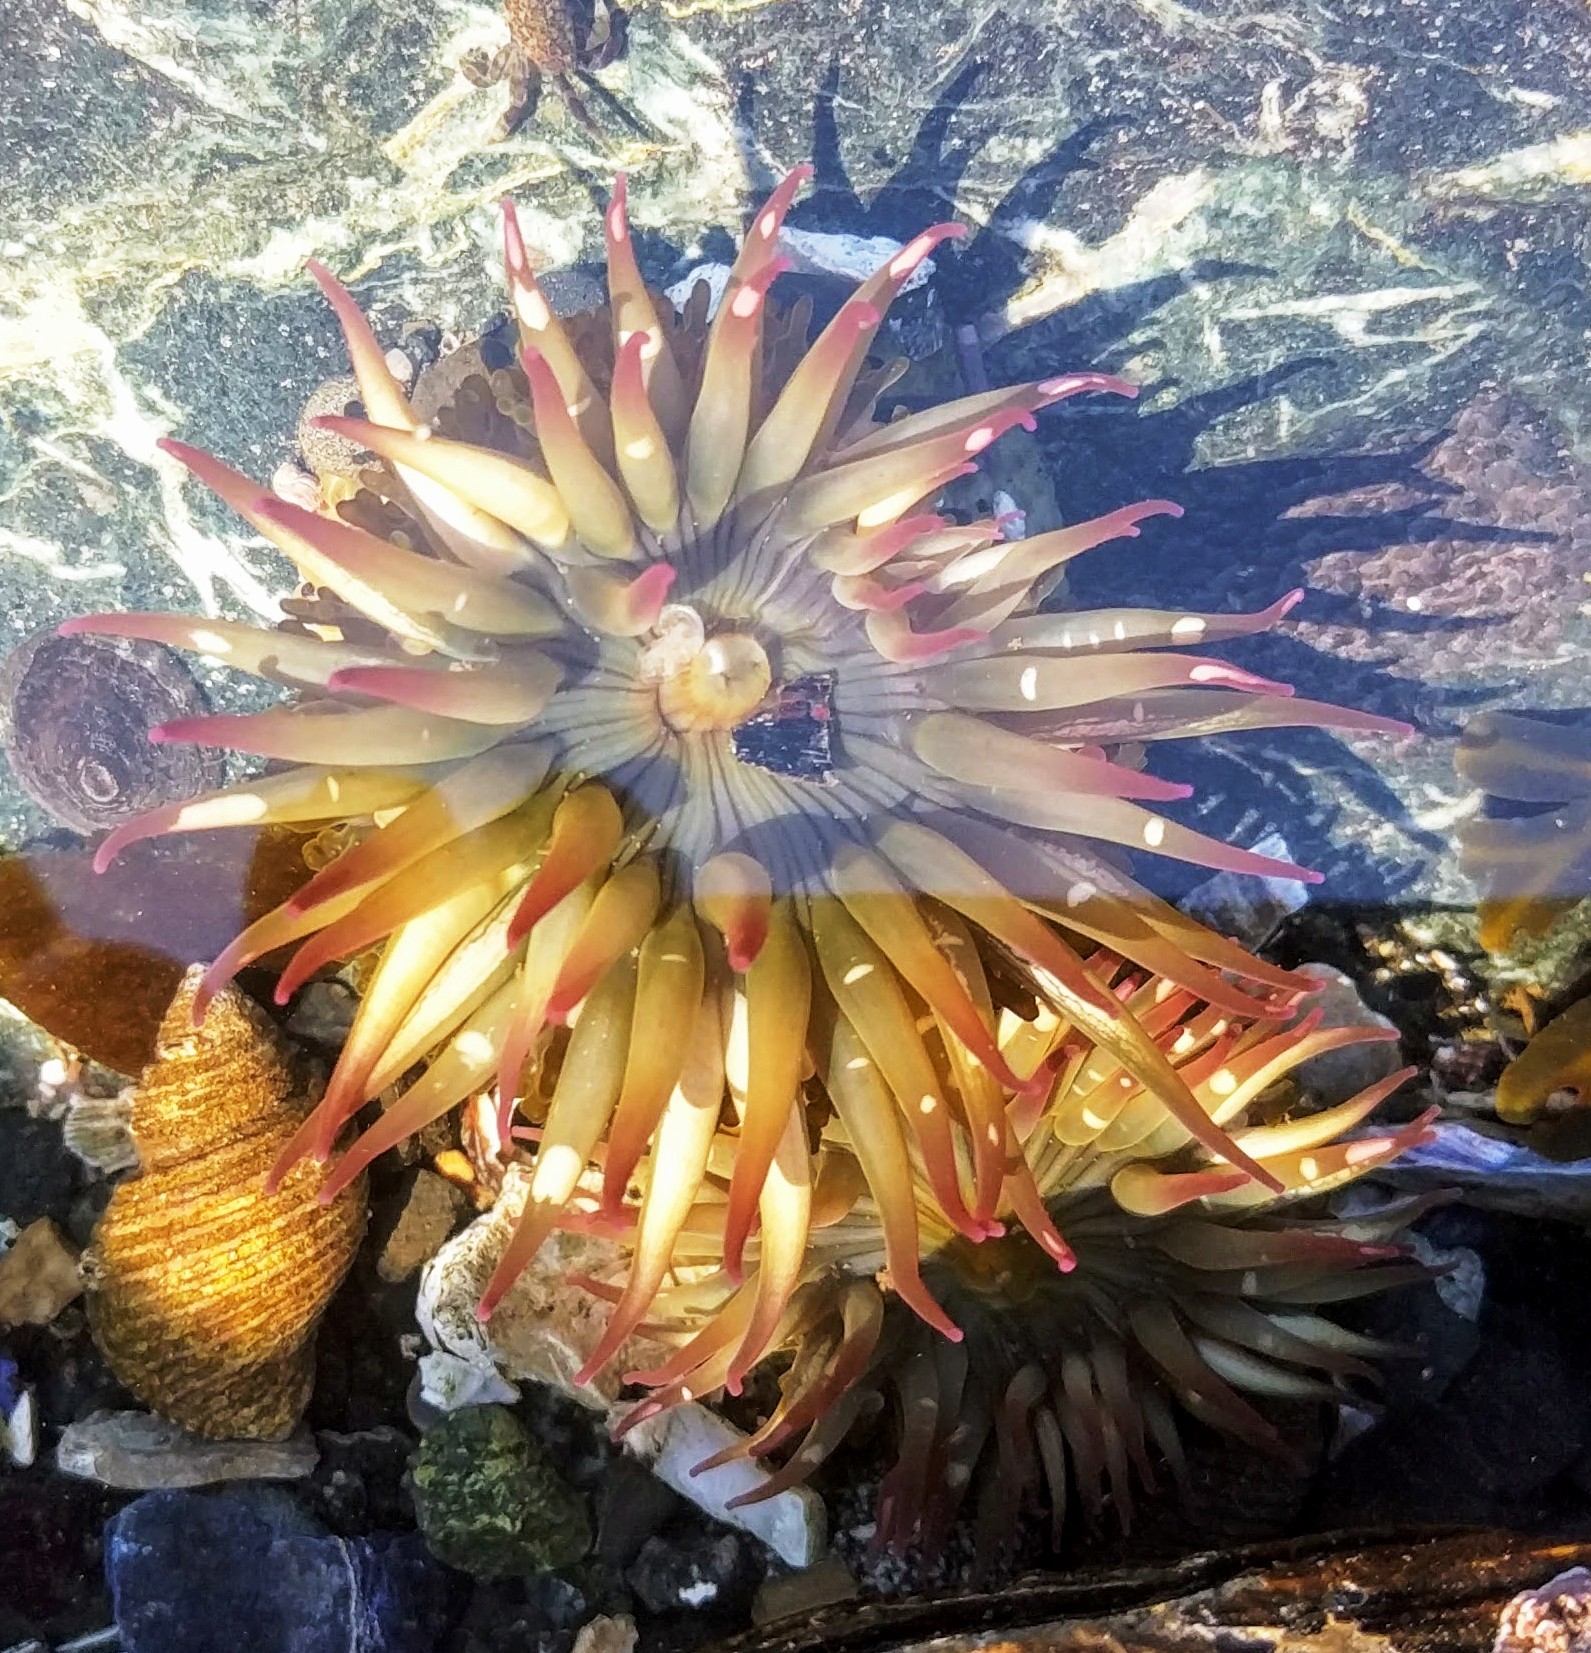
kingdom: Animalia
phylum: Cnidaria
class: Anthozoa
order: Actiniaria
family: Actiniidae
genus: Anthopleura
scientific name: Anthopleura elegantissima
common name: Clonal anemone
